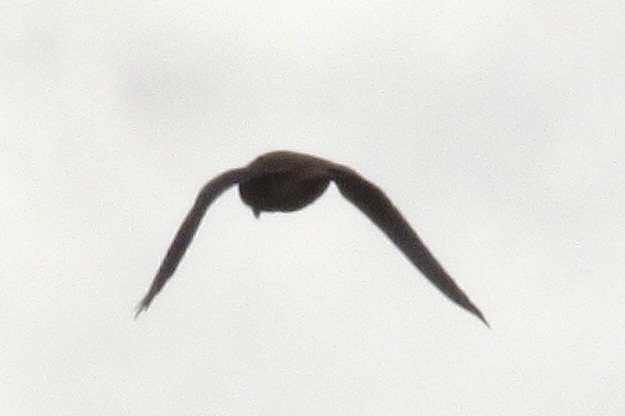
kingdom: Animalia
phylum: Chordata
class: Aves
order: Falconiformes
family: Falconidae
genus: Falco
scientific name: Falco sparverius
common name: American kestrel
